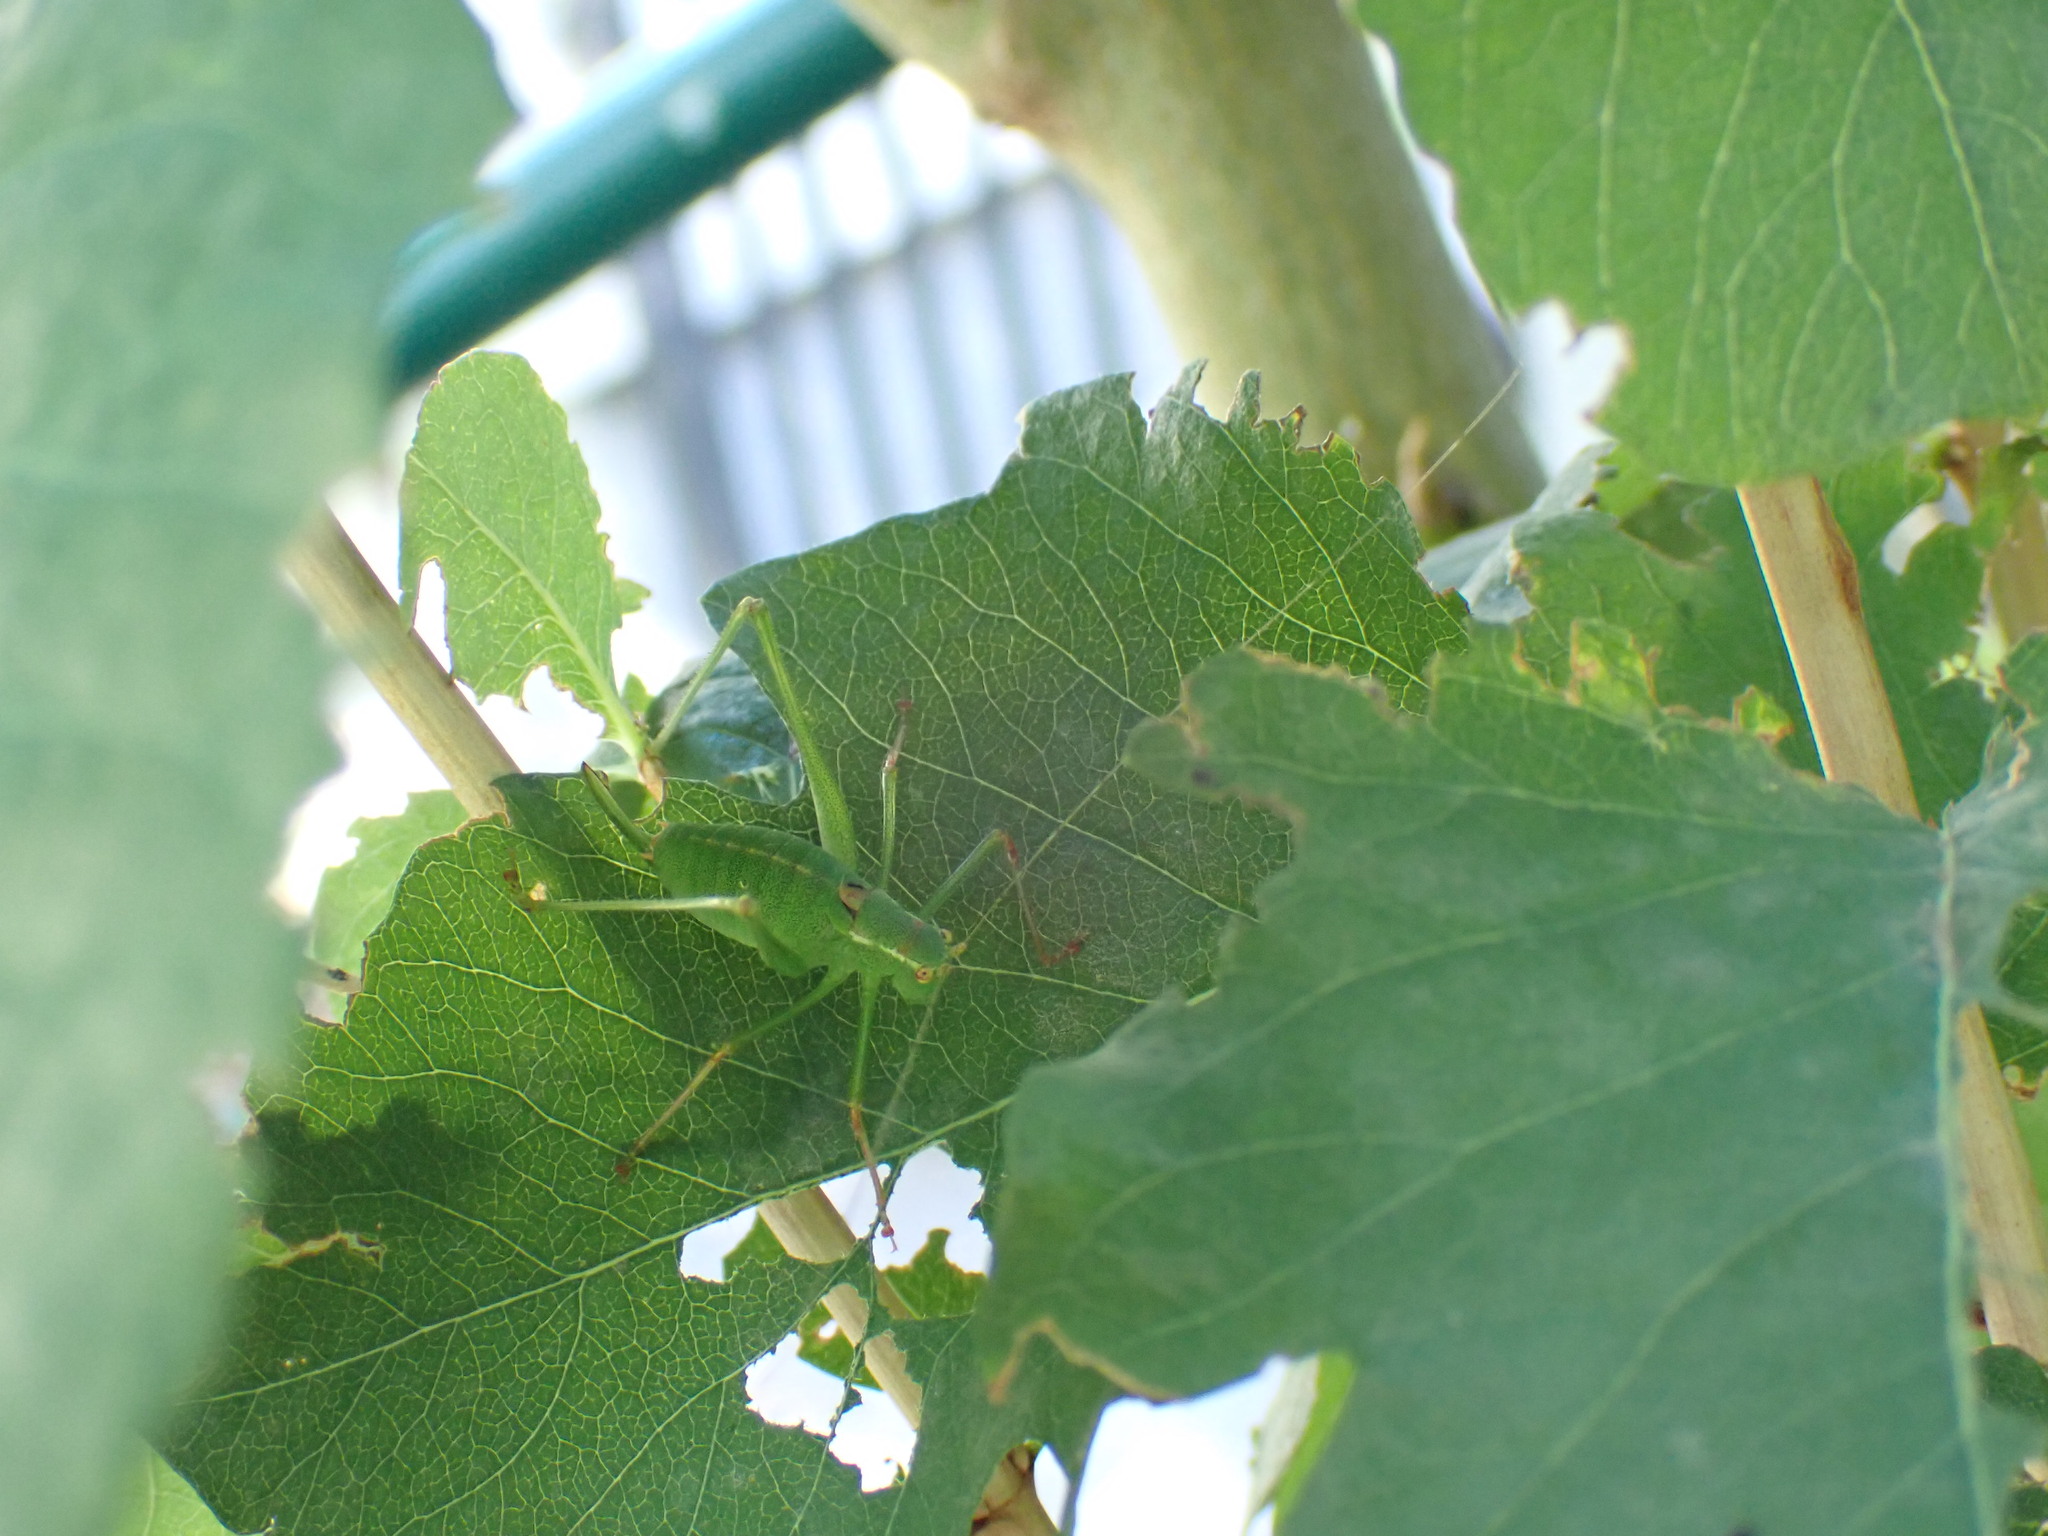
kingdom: Animalia
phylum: Arthropoda
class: Insecta
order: Orthoptera
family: Tettigoniidae
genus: Leptophyes
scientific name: Leptophyes punctatissima
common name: Speckled bush-cricket
